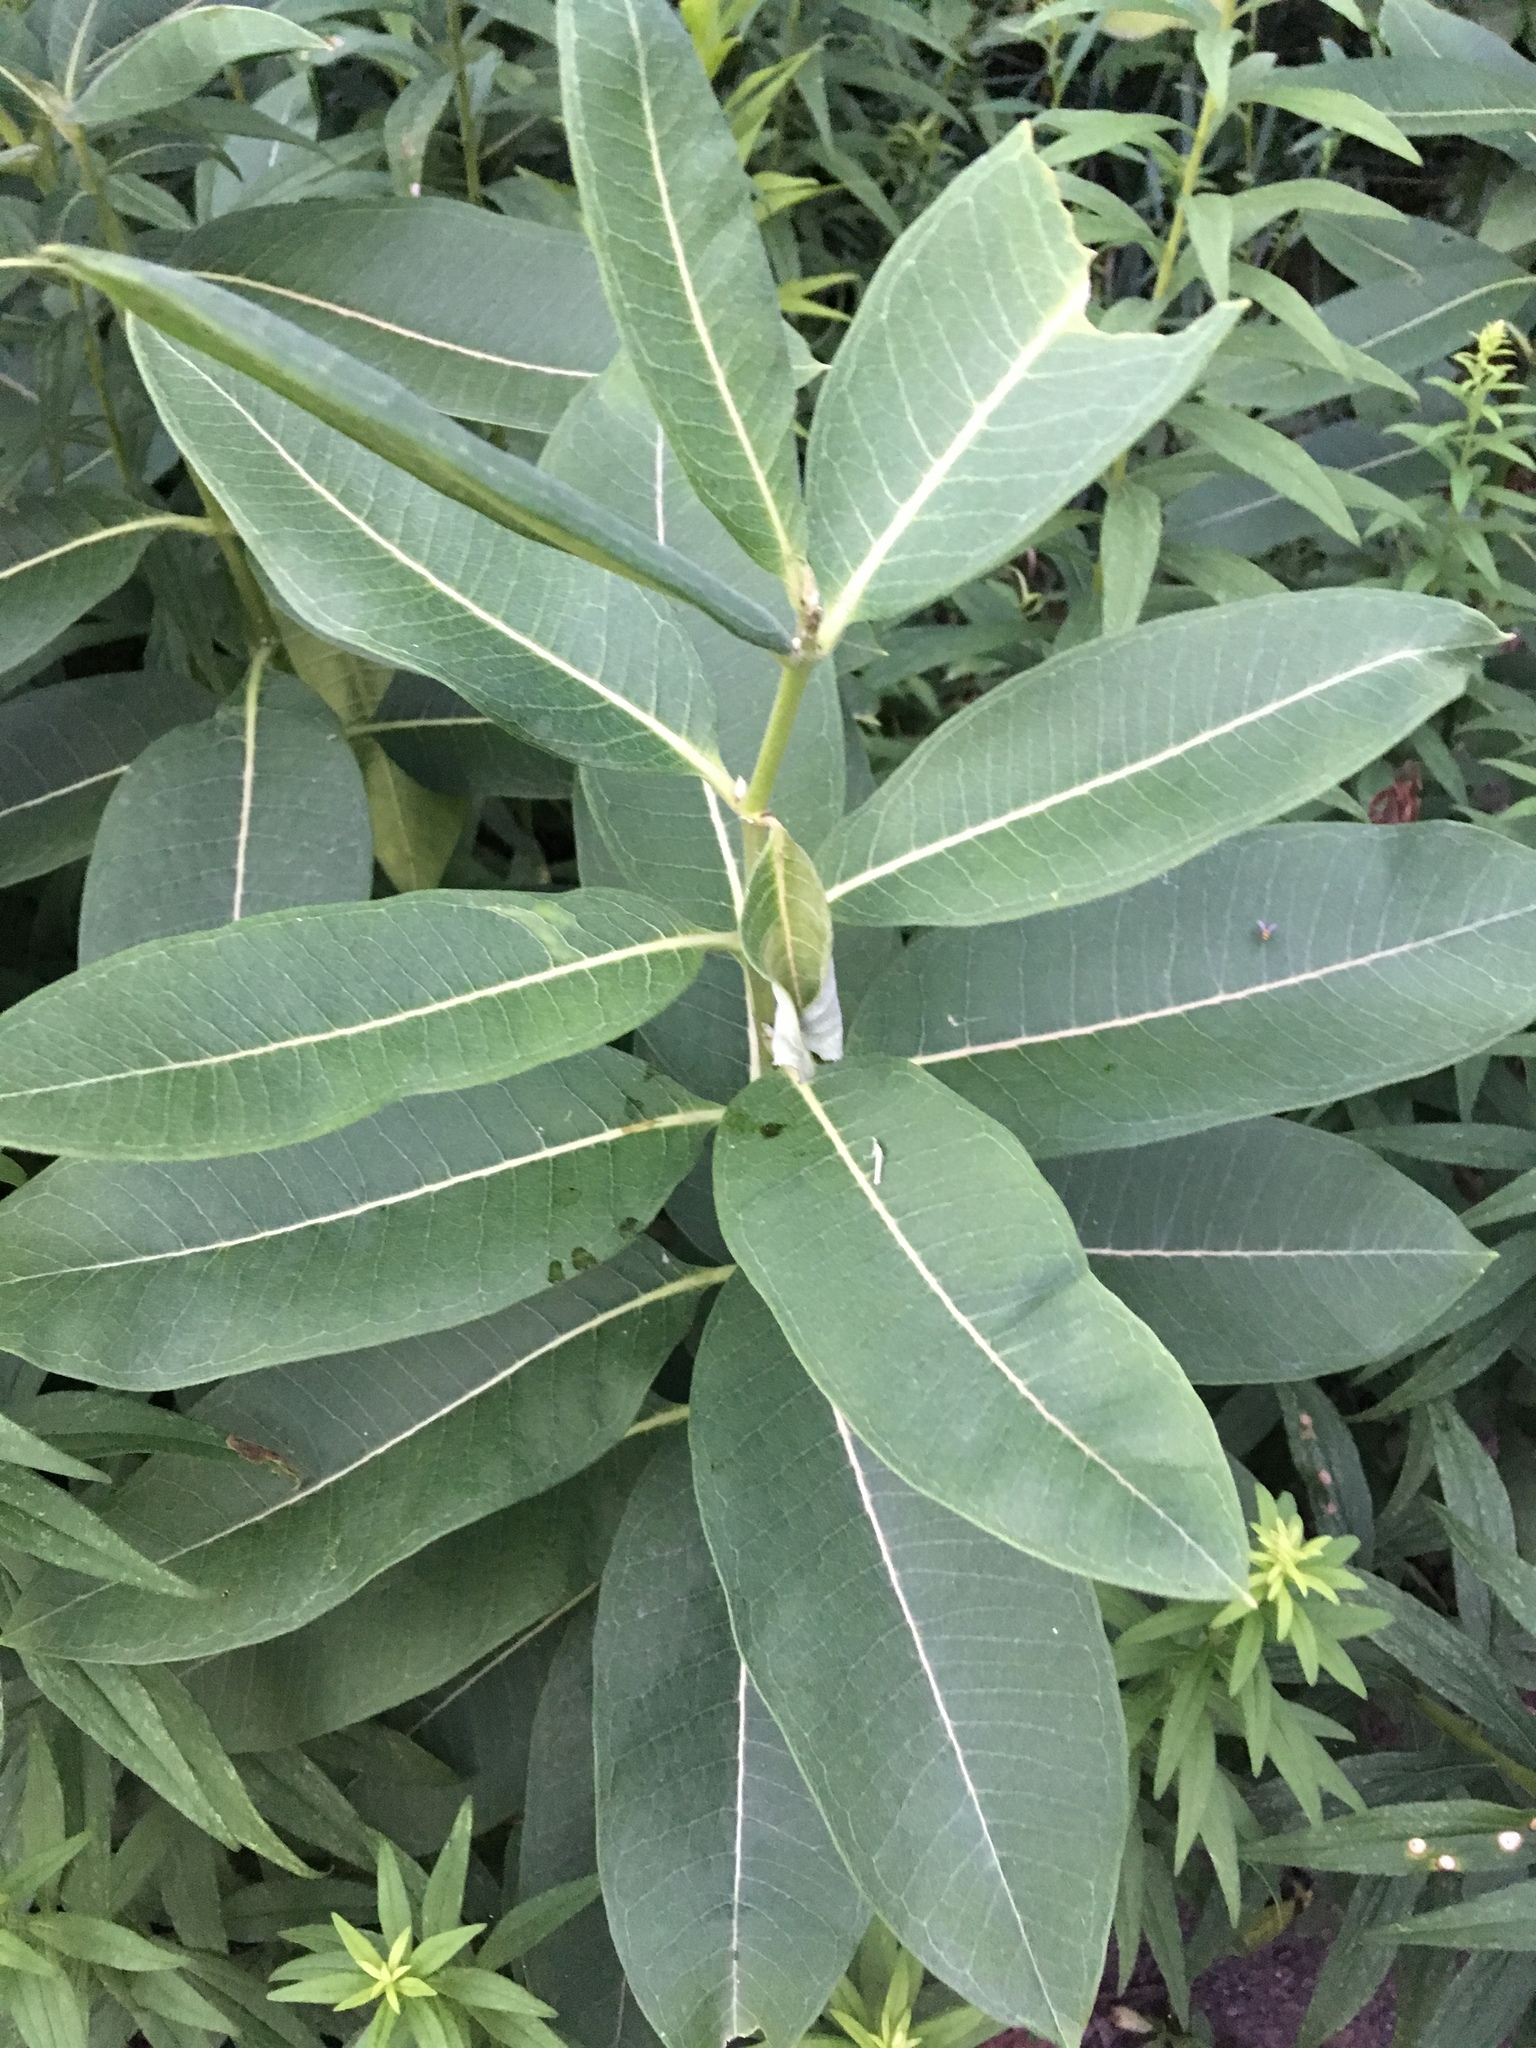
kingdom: Plantae
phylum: Tracheophyta
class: Magnoliopsida
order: Gentianales
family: Apocynaceae
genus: Asclepias
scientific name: Asclepias syriaca
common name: Common milkweed
